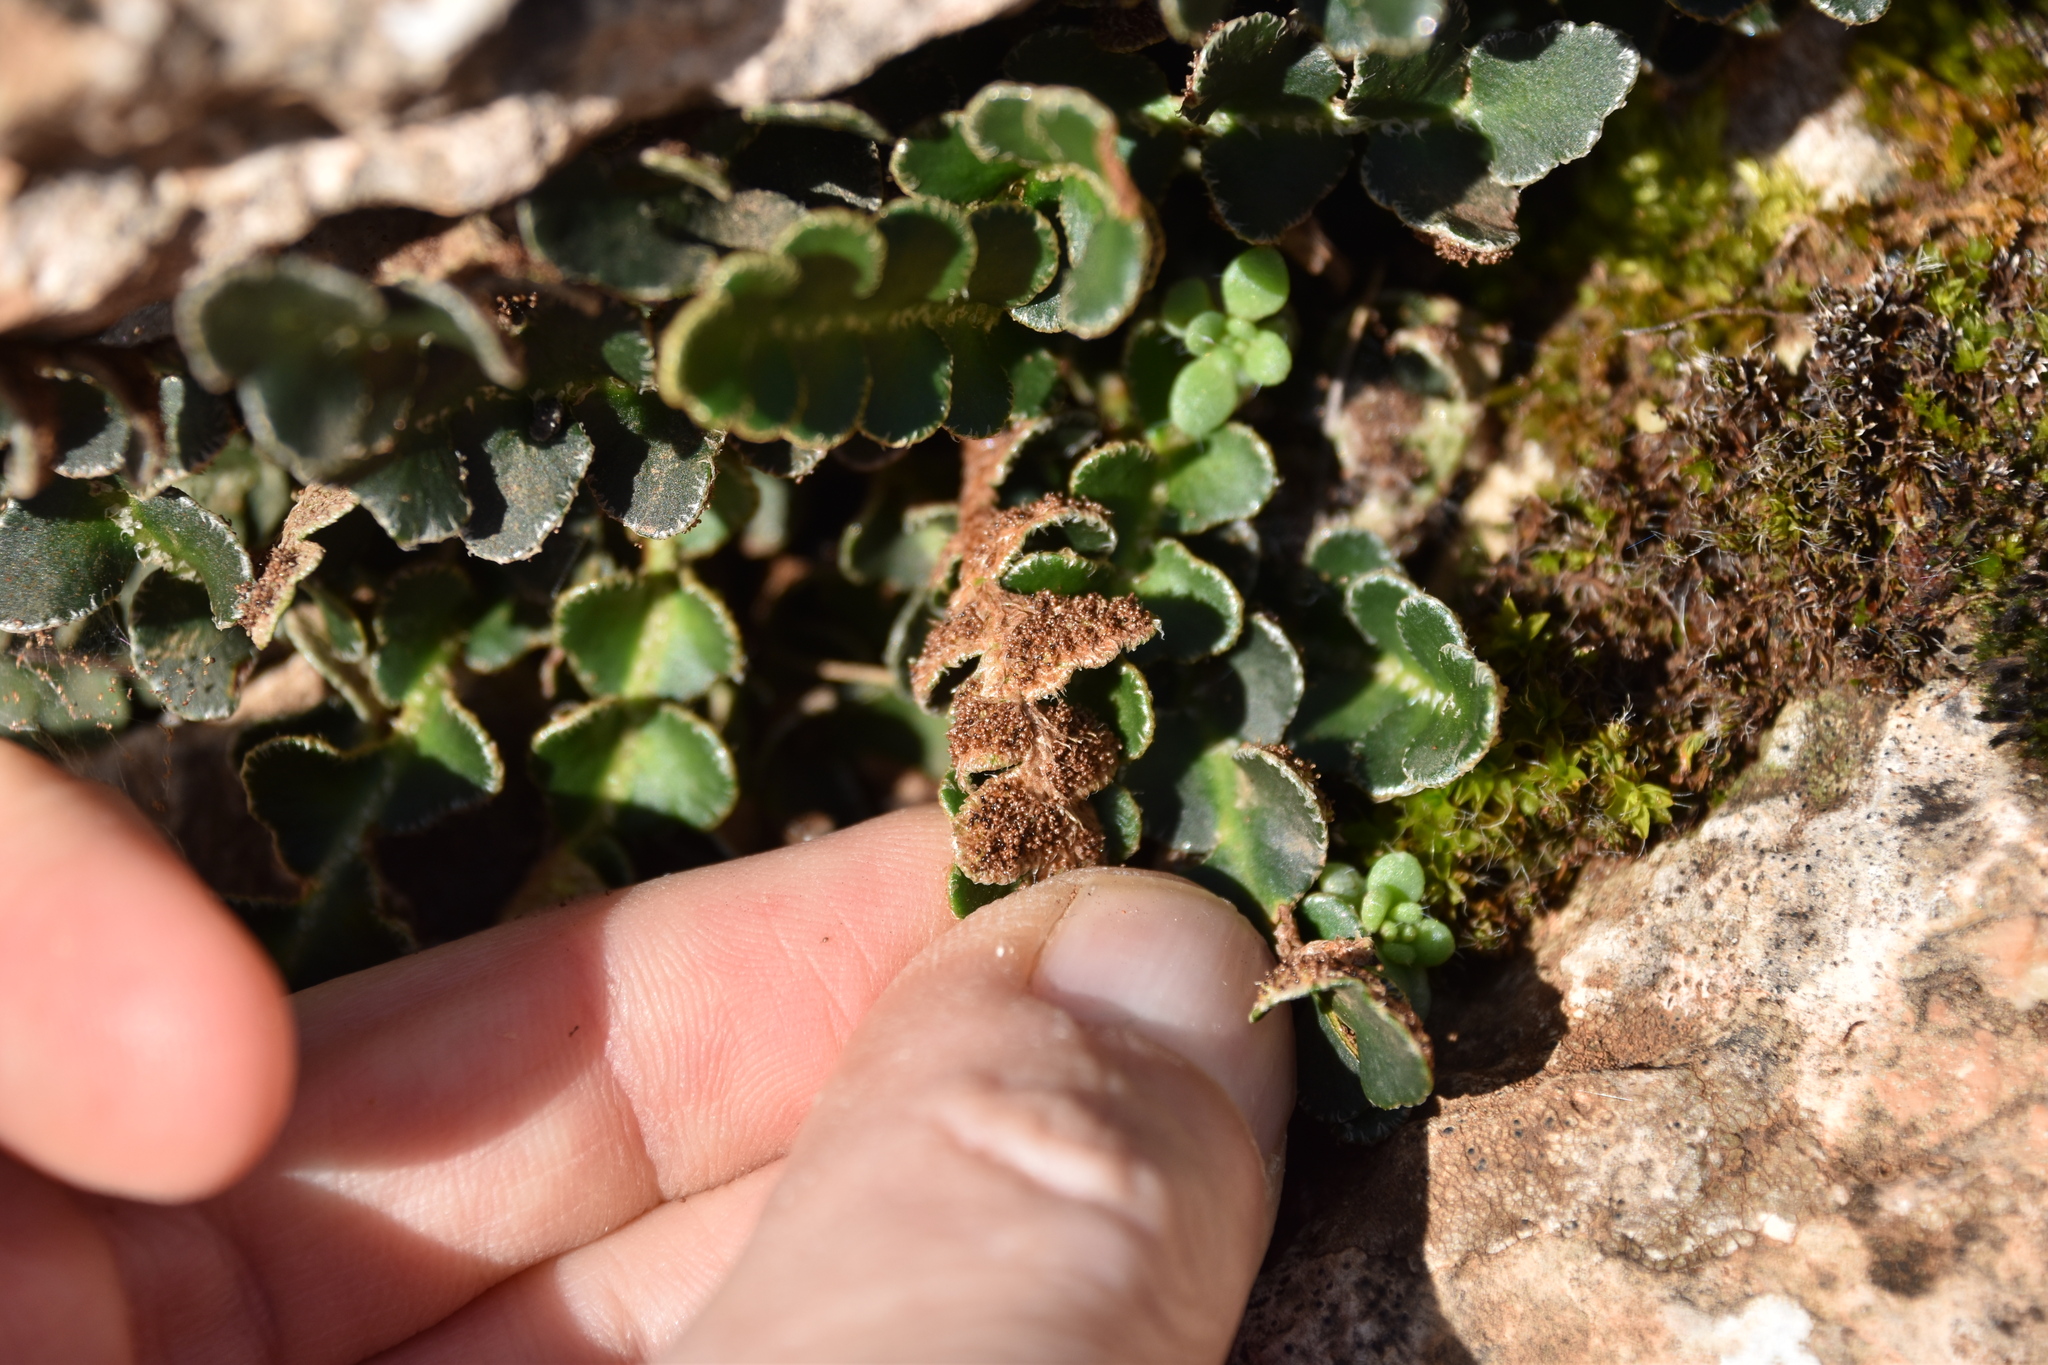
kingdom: Plantae
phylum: Tracheophyta
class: Polypodiopsida
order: Polypodiales
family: Aspleniaceae
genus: Asplenium
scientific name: Asplenium ceterach
